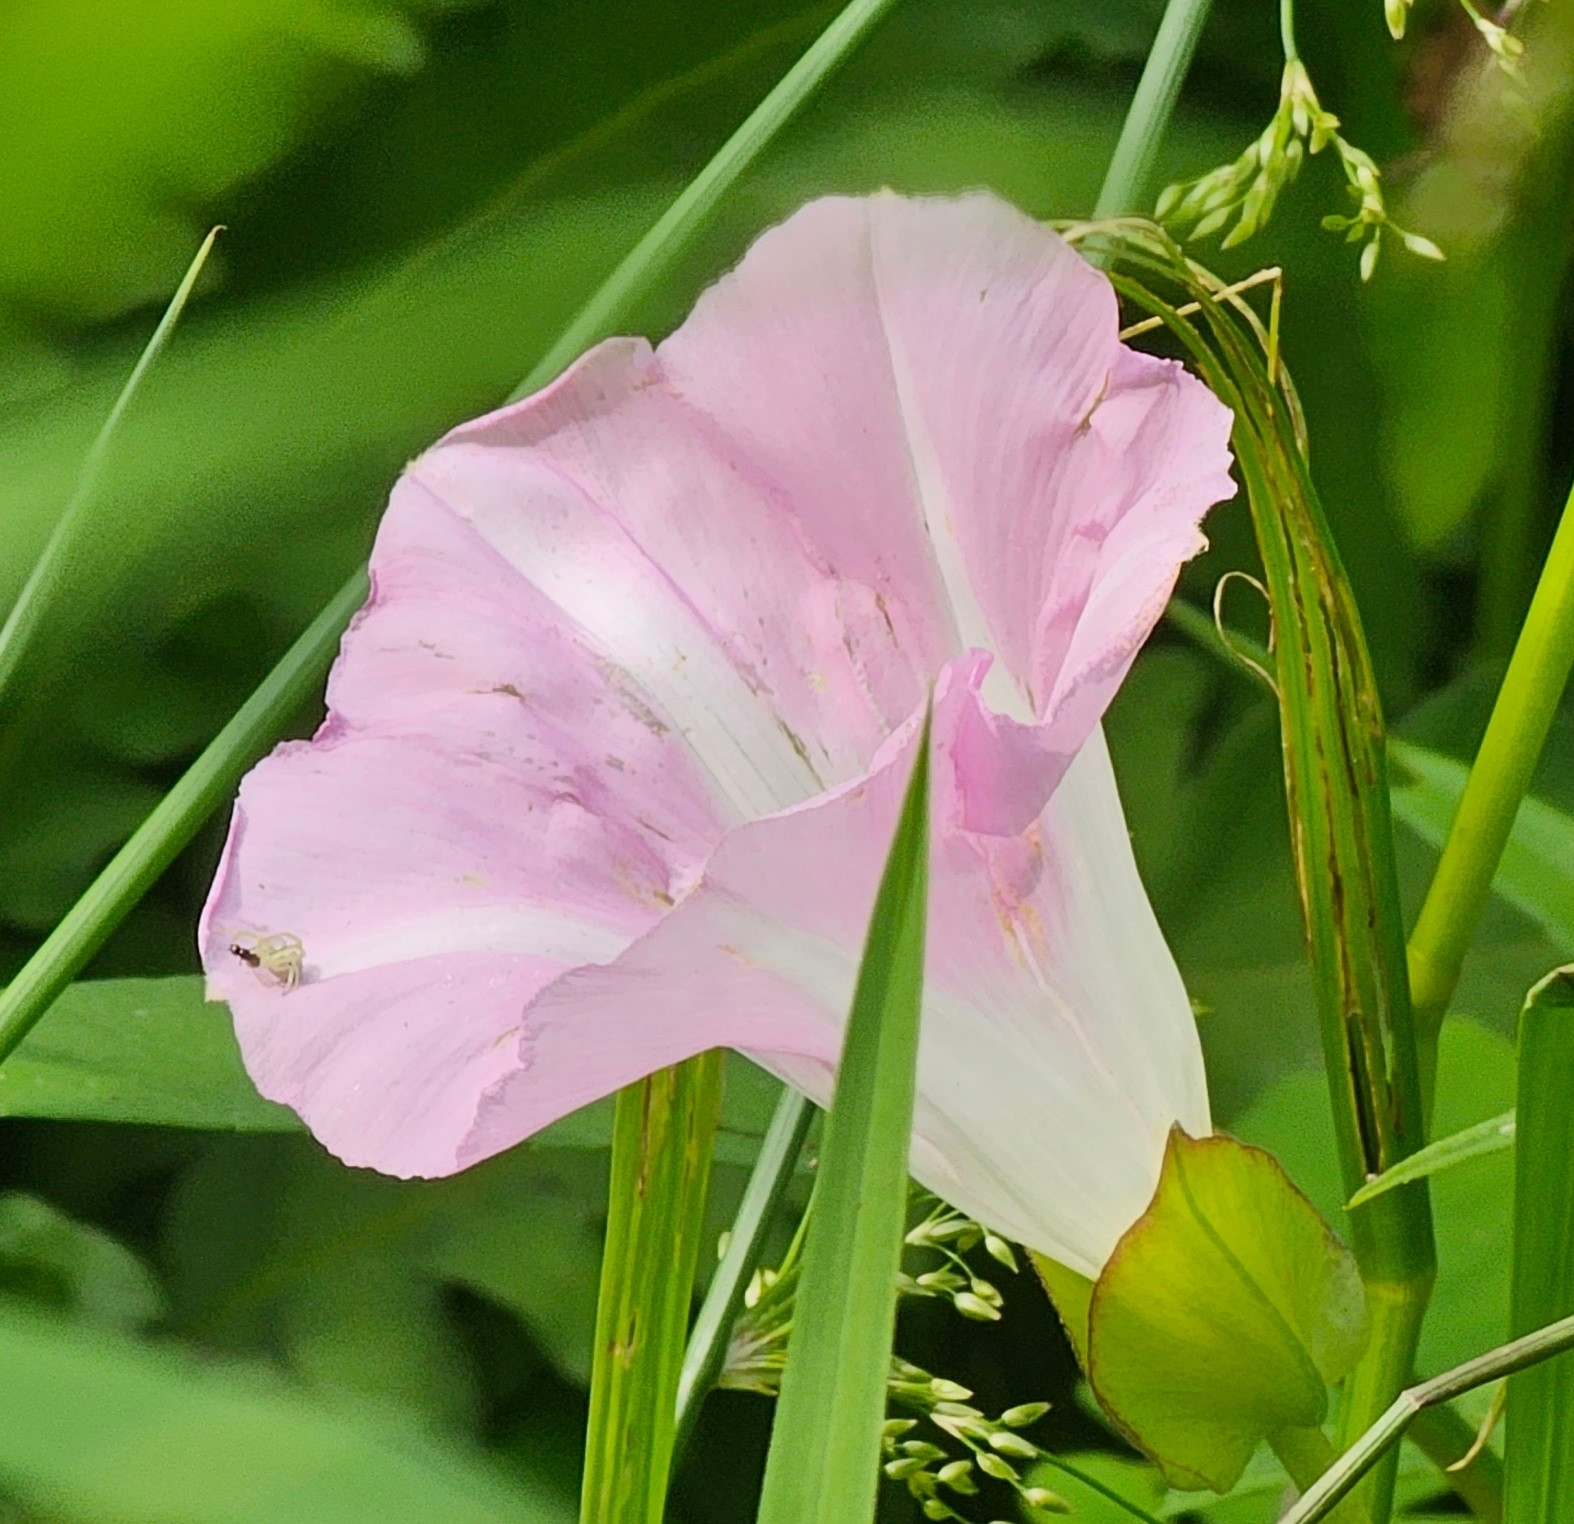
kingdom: Plantae
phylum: Tracheophyta
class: Magnoliopsida
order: Solanales
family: Convolvulaceae
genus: Calystegia
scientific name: Calystegia sepium
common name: Hedge bindweed
